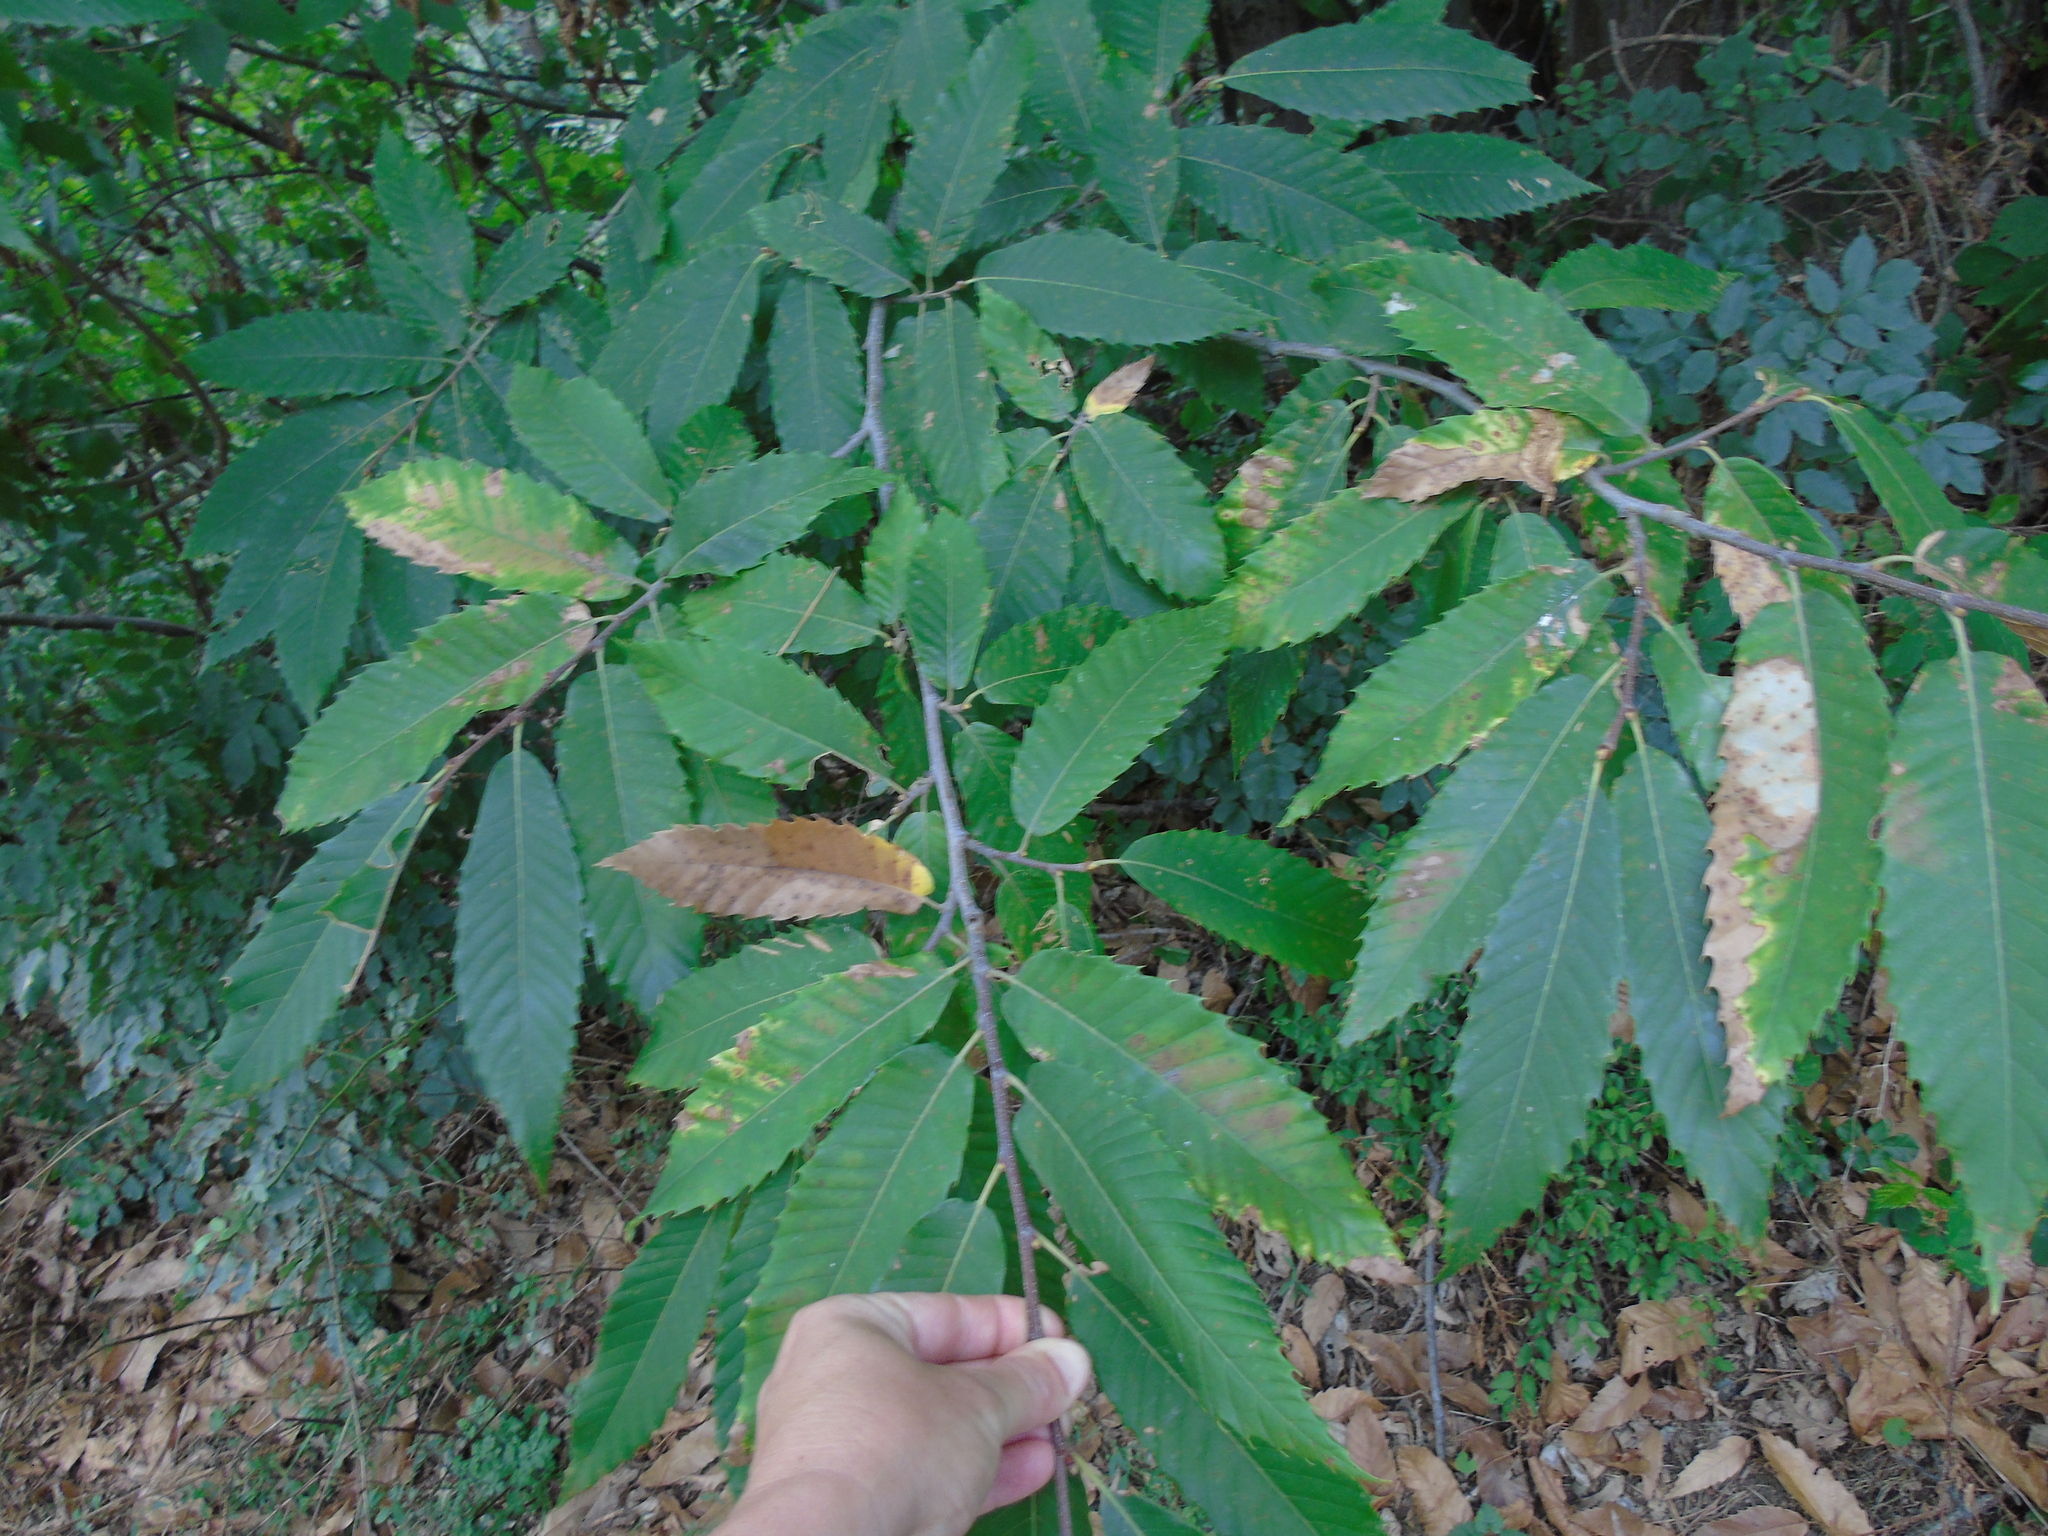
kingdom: Plantae
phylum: Tracheophyta
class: Magnoliopsida
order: Fagales
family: Fagaceae
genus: Castanea
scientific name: Castanea sativa
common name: Sweet chestnut
